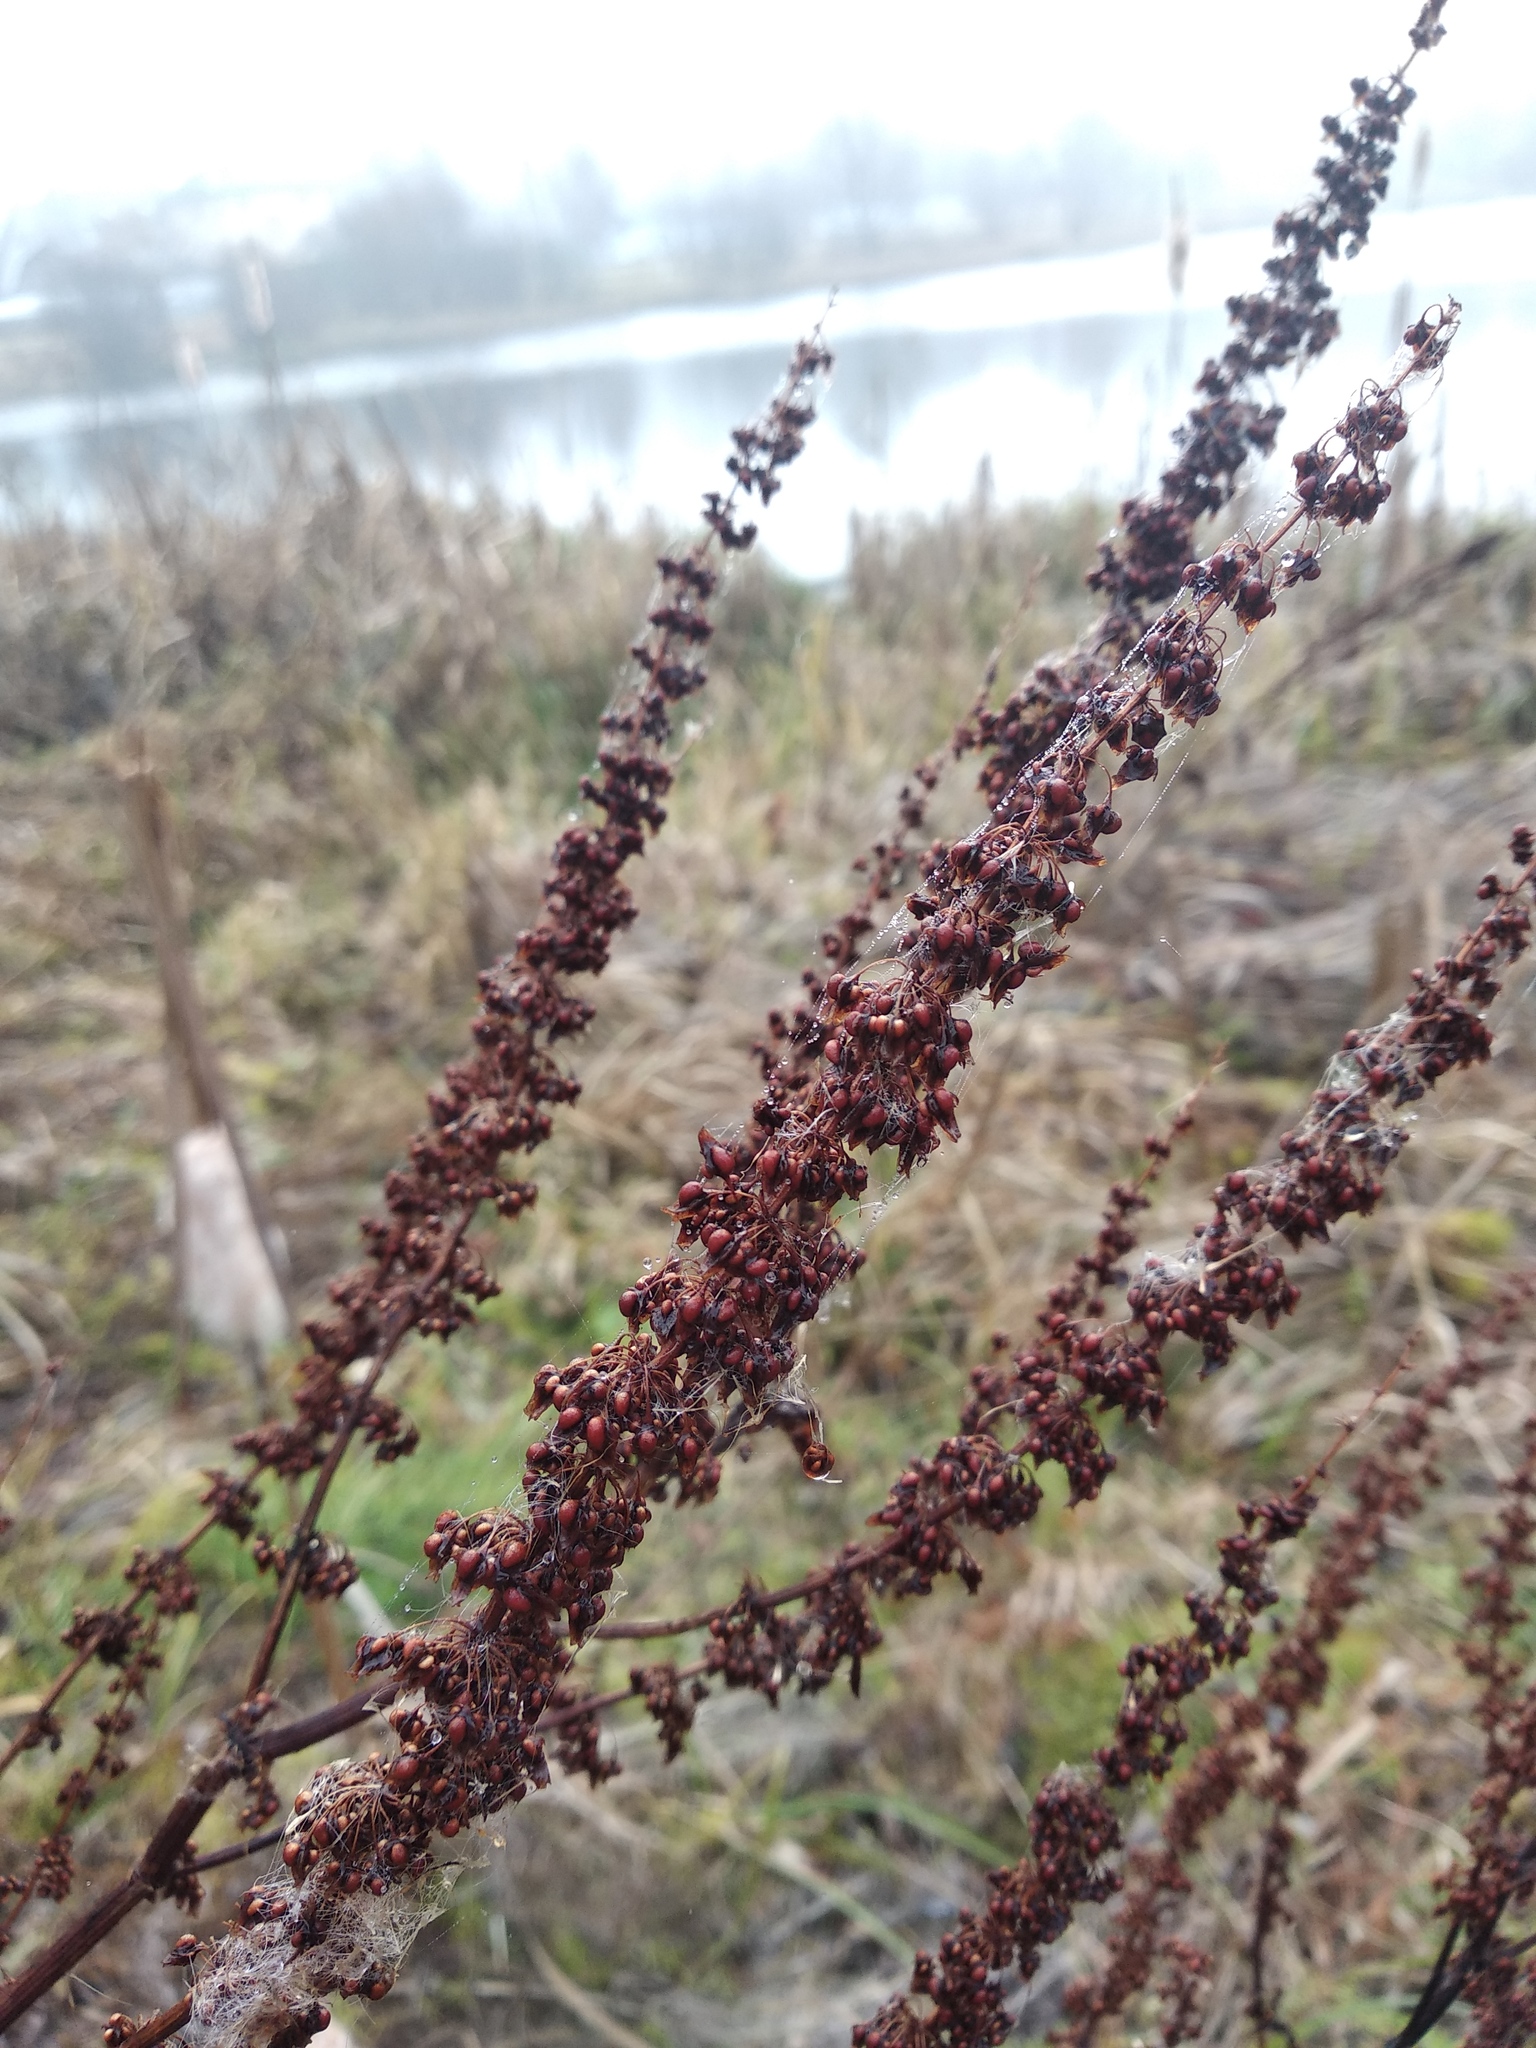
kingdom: Plantae
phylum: Tracheophyta
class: Magnoliopsida
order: Caryophyllales
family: Polygonaceae
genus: Rumex
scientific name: Rumex obtusifolius
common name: Bitter dock
